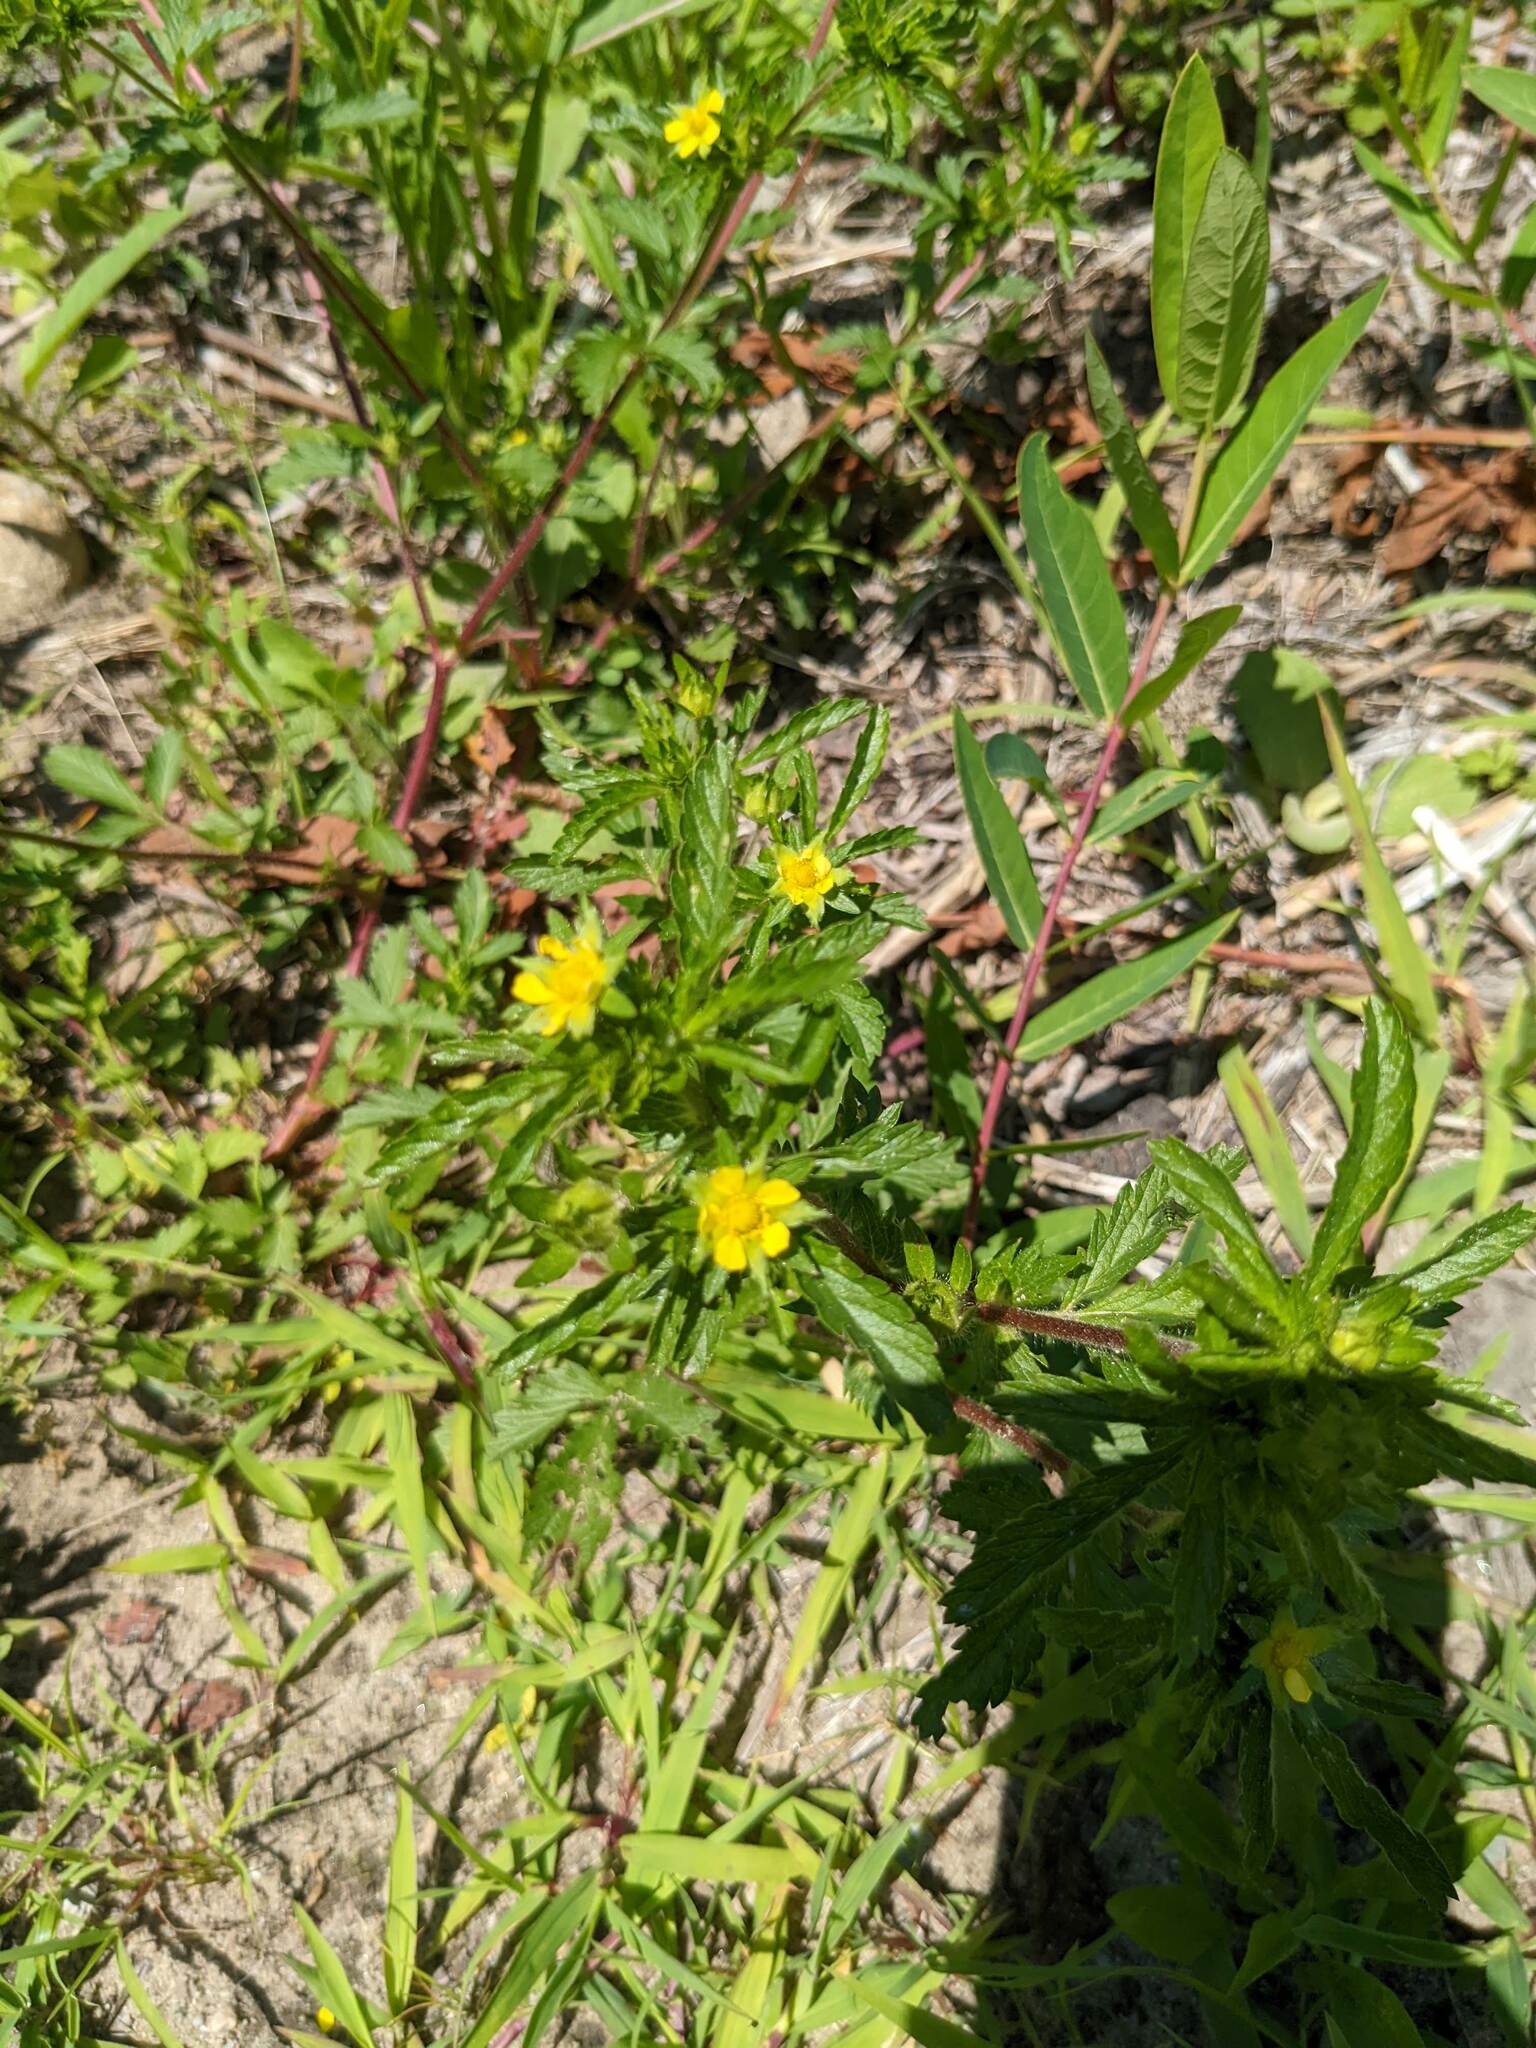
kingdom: Plantae
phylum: Tracheophyta
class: Magnoliopsida
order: Rosales
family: Rosaceae
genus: Potentilla
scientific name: Potentilla norvegica
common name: Ternate-leaved cinquefoil
